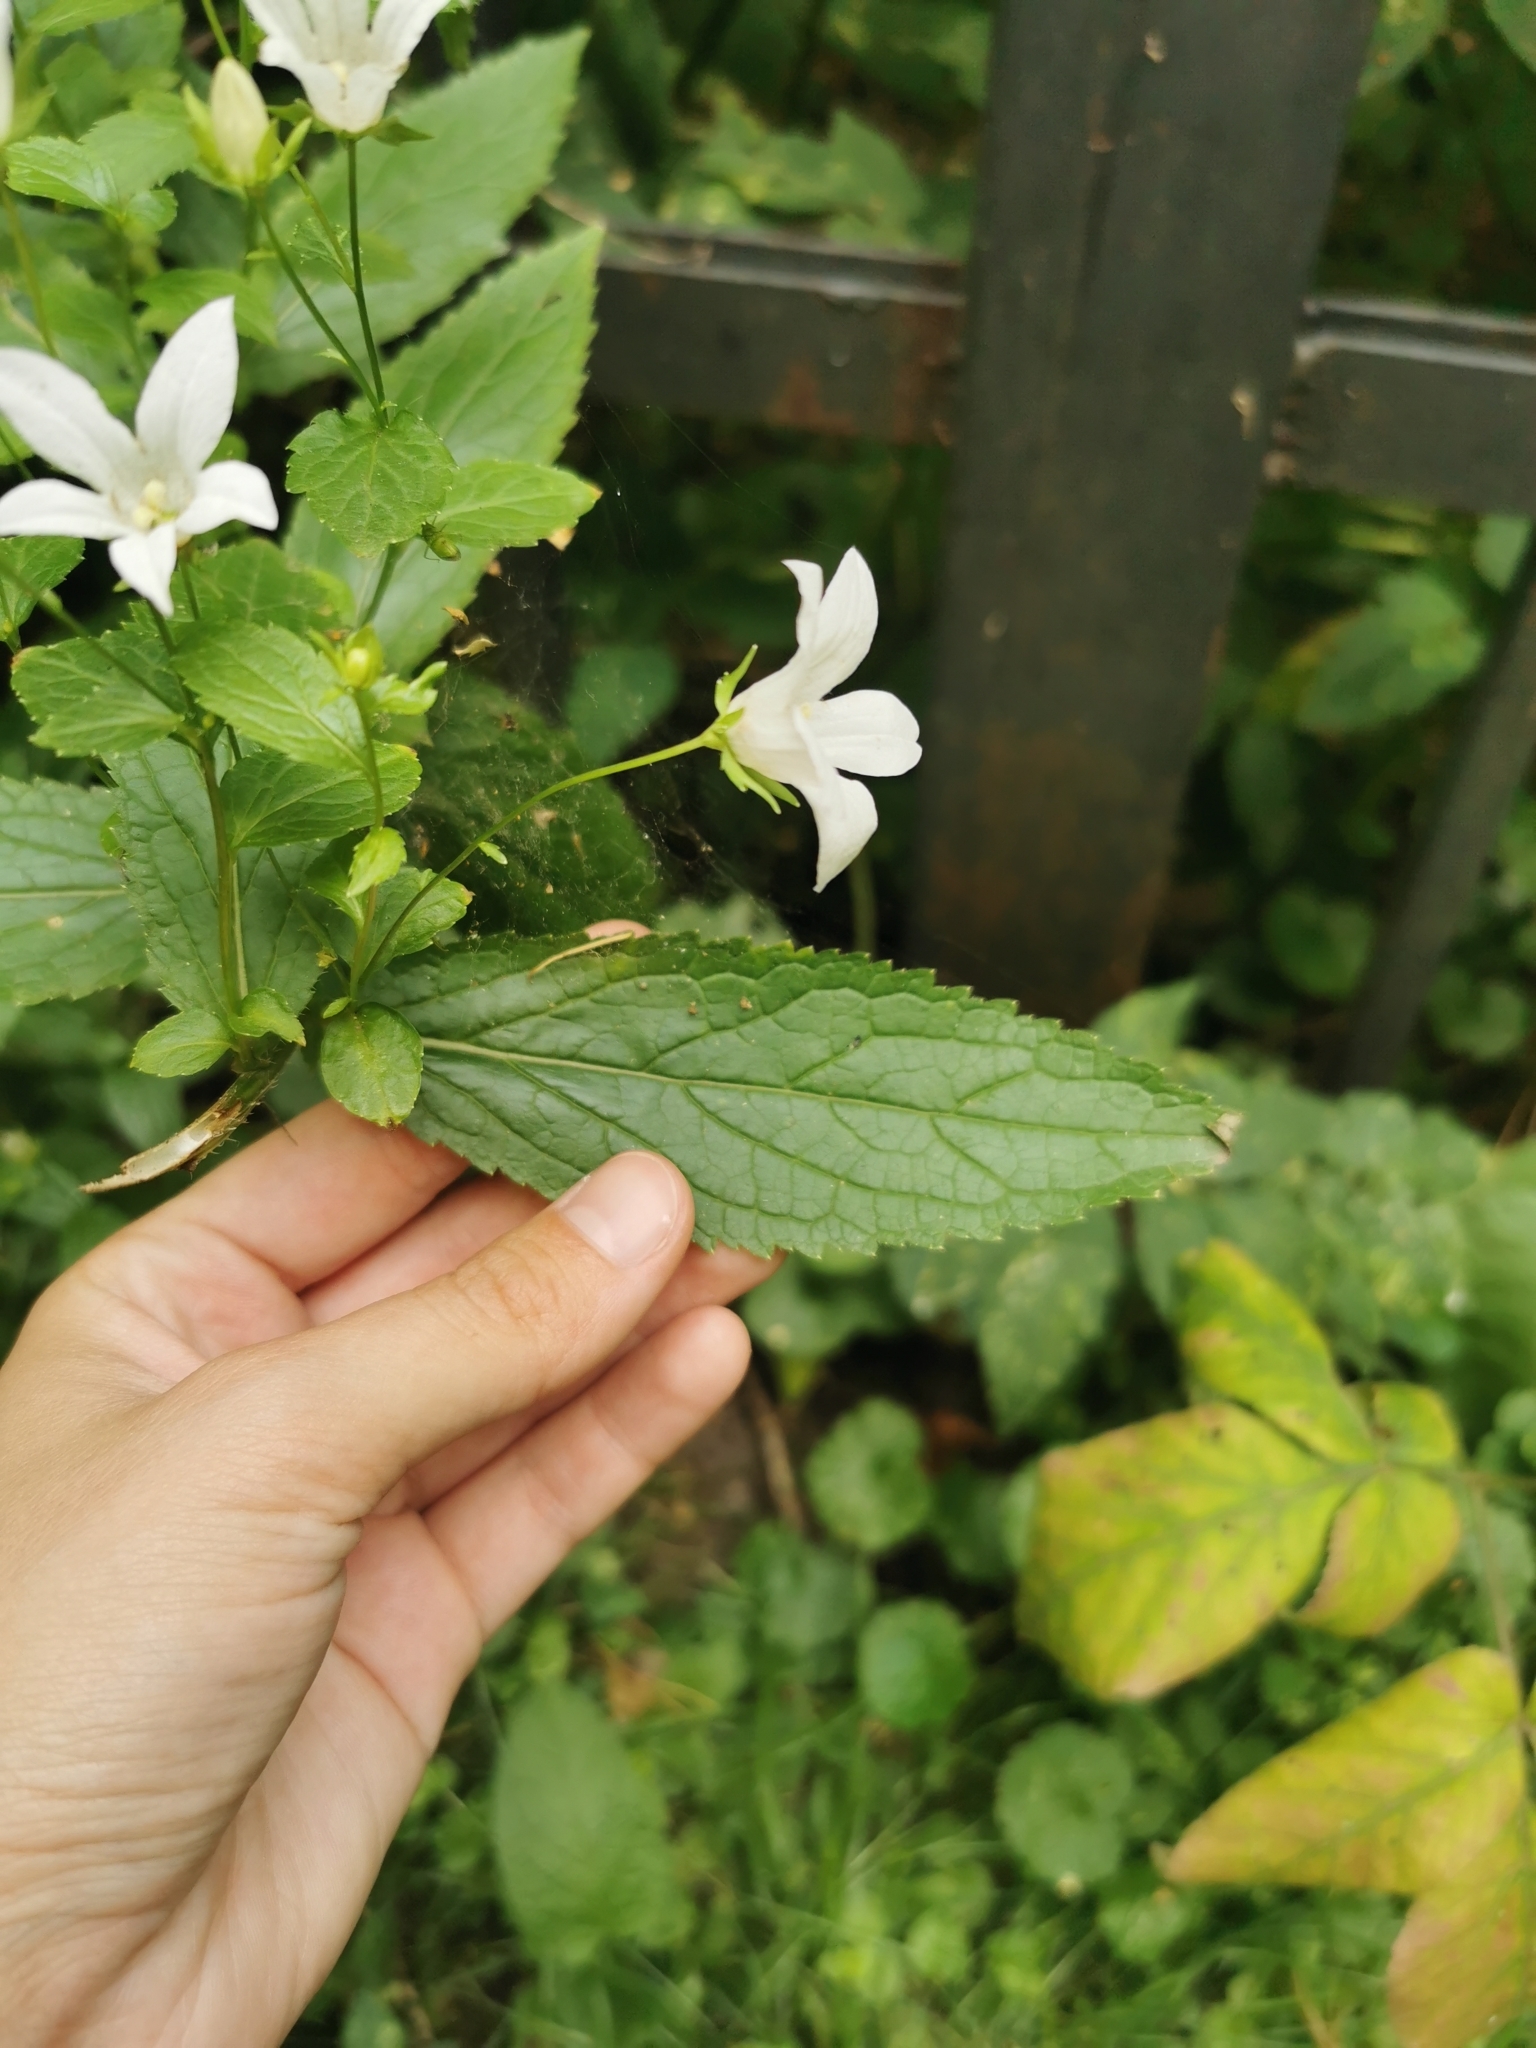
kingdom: Plantae
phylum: Tracheophyta
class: Magnoliopsida
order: Asterales
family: Campanulaceae
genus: Campanula
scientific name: Campanula lactiflora
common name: Milky bellflower
